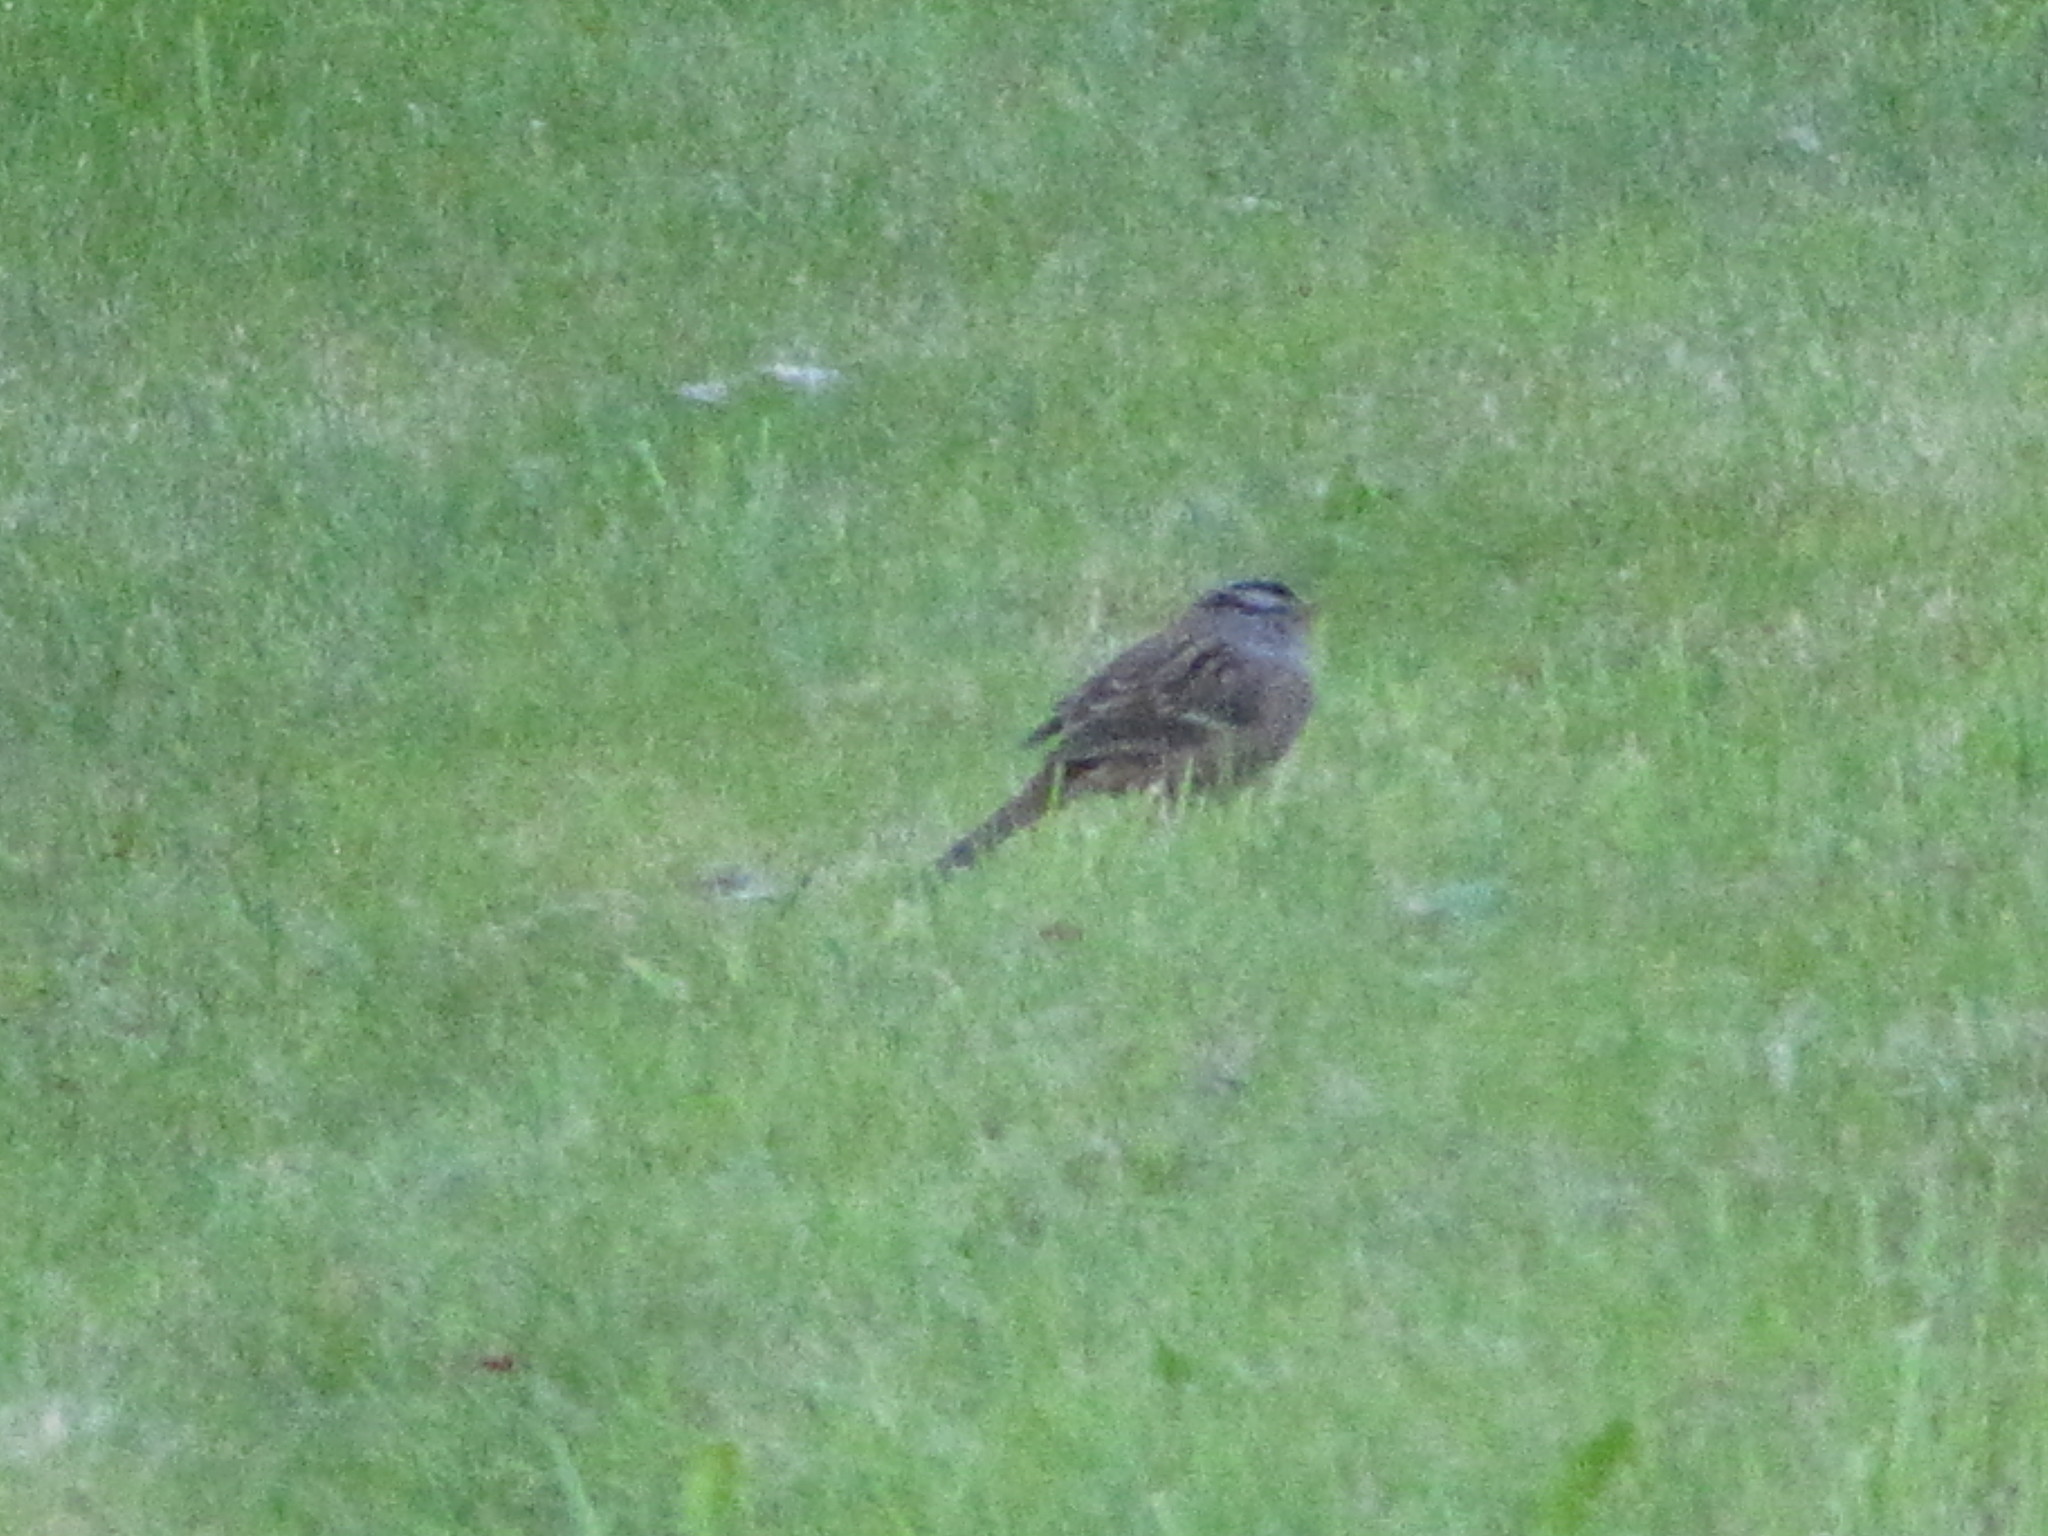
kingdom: Animalia
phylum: Chordata
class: Aves
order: Passeriformes
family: Passerellidae
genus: Zonotrichia
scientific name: Zonotrichia leucophrys
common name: White-crowned sparrow
